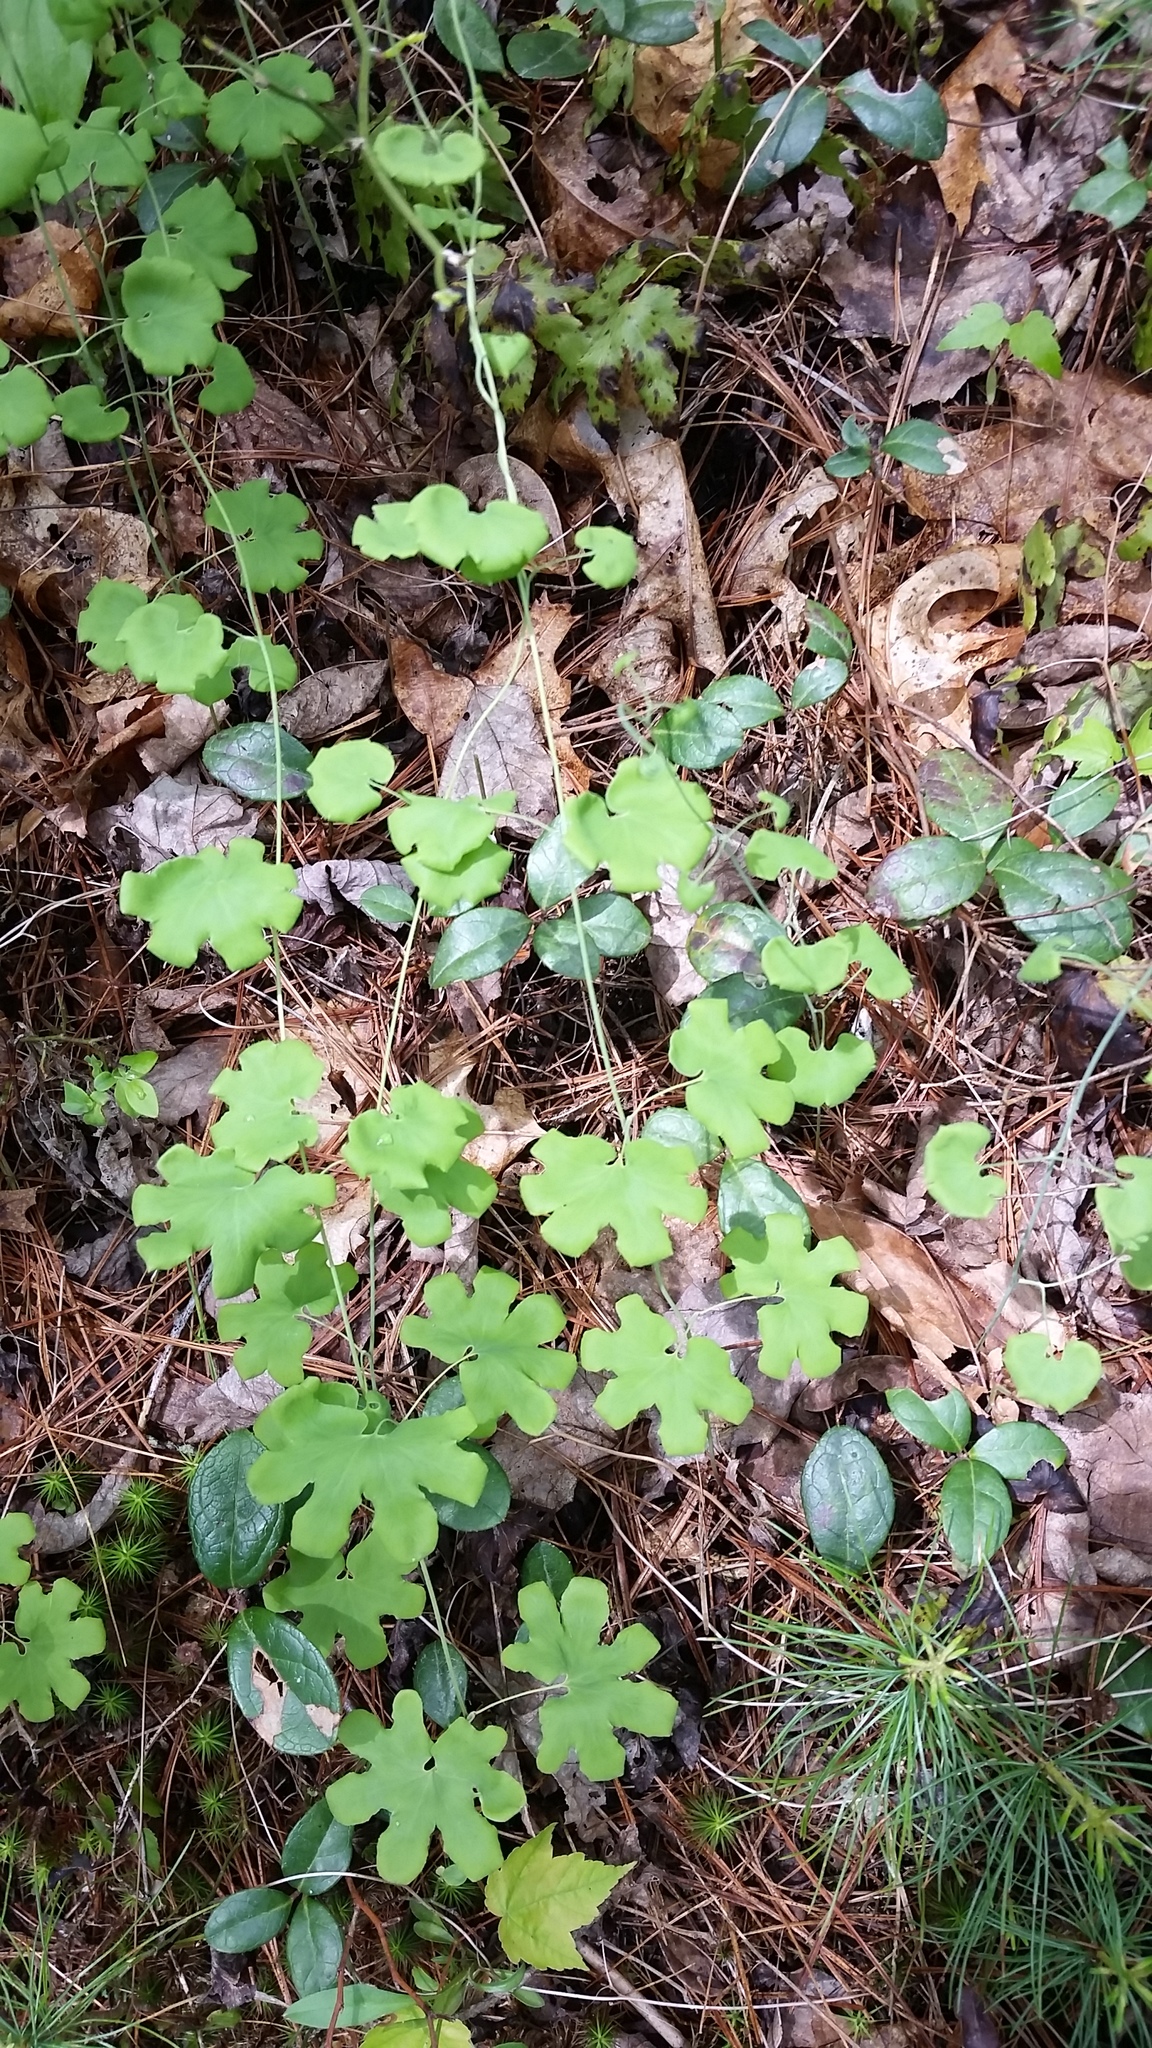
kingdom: Plantae
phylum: Tracheophyta
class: Polypodiopsida
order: Schizaeales
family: Lygodiaceae
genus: Lygodium
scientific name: Lygodium palmatum
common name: American climbing fern
